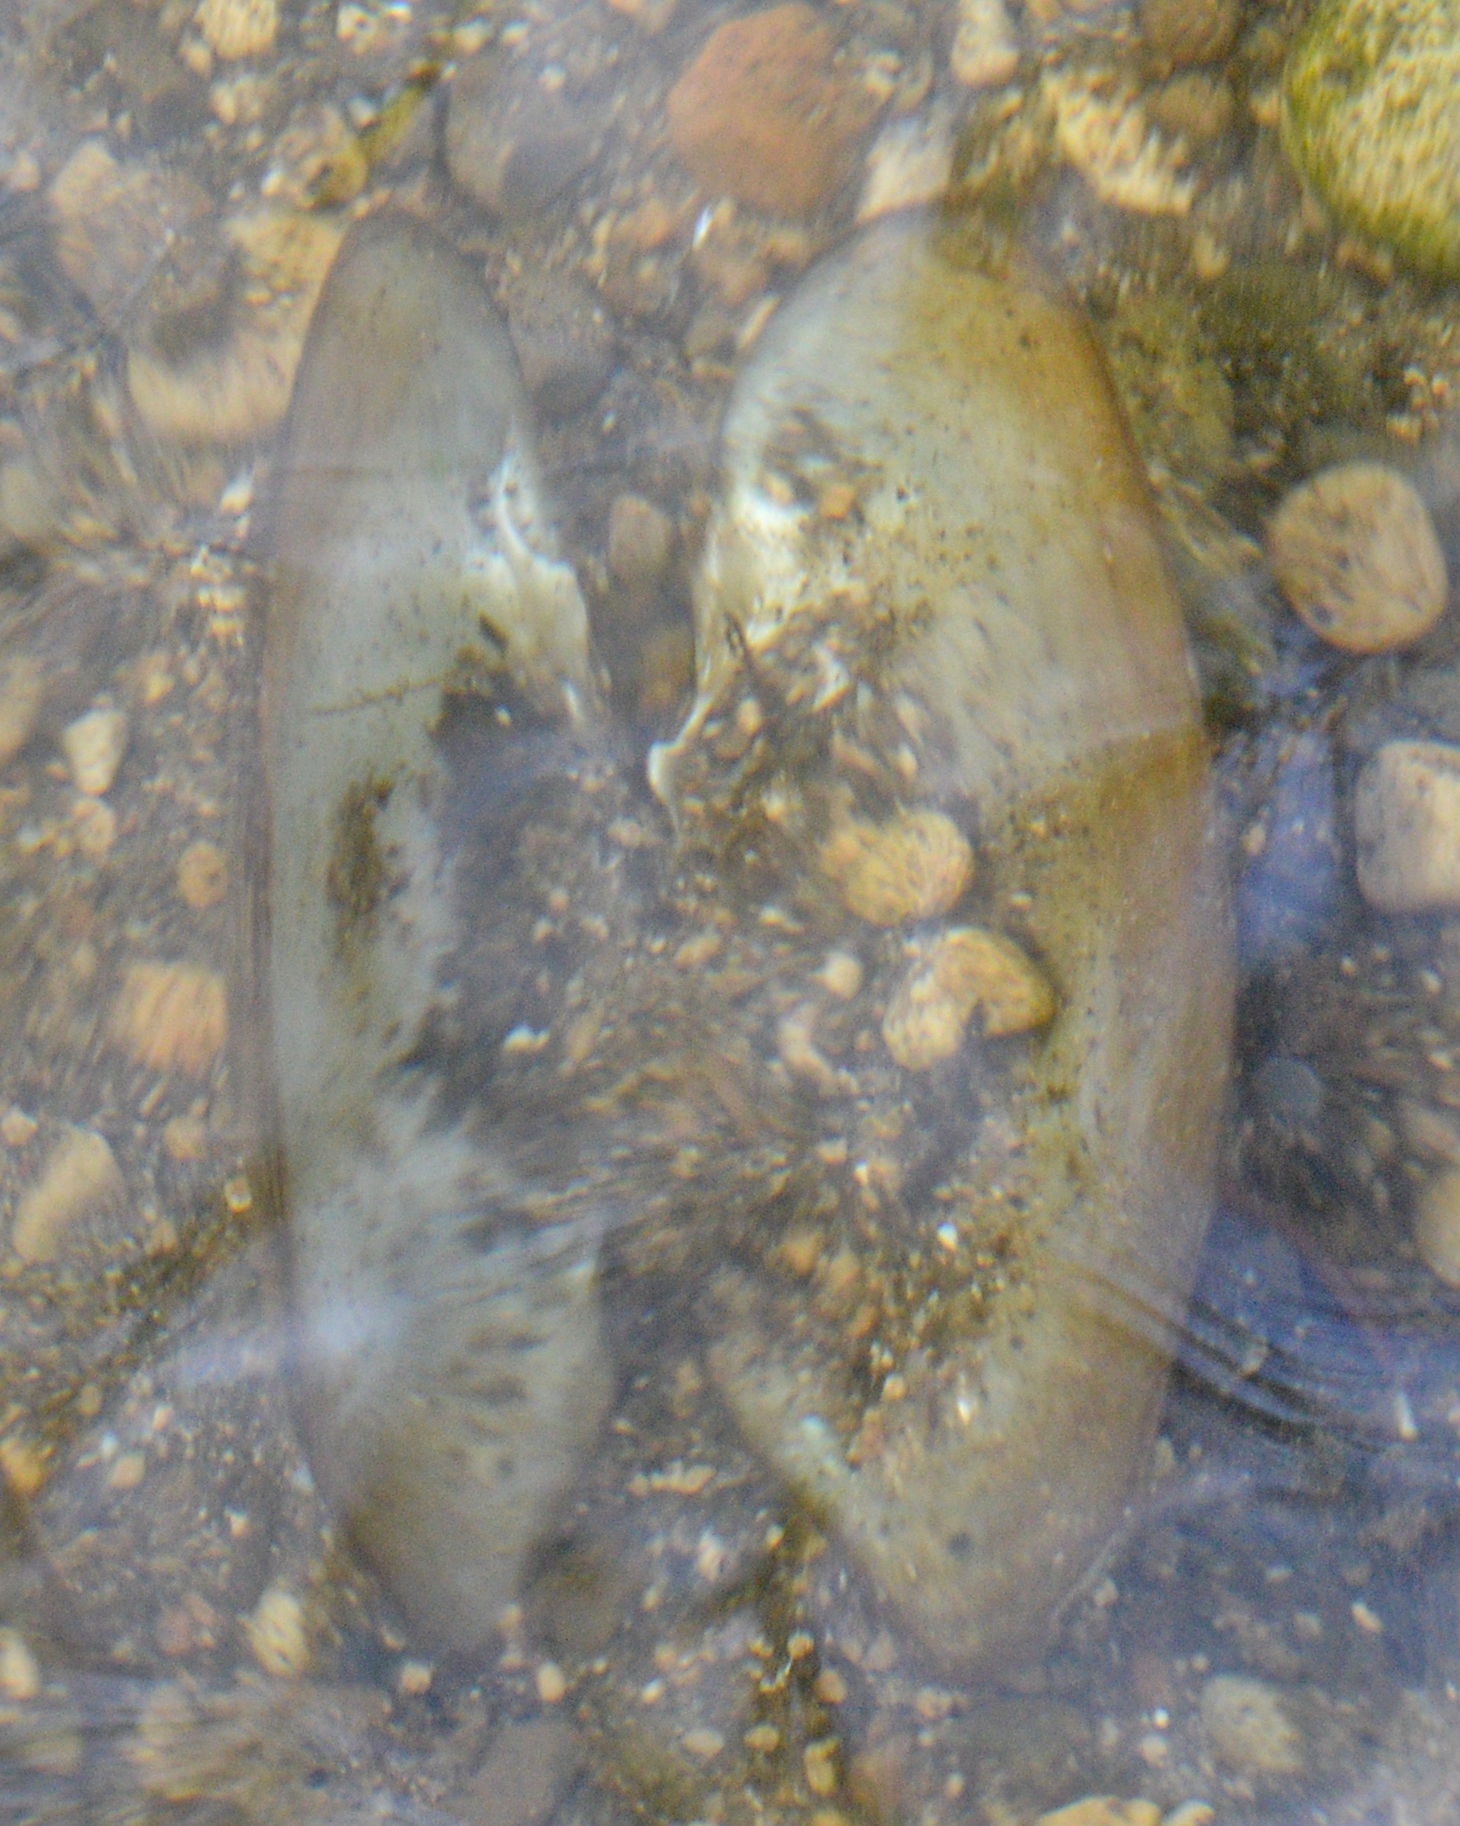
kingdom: Animalia
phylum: Mollusca
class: Bivalvia
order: Unionida
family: Unionidae
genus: Lasmigona
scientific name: Lasmigona compressa
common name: Creek heelsplitter
